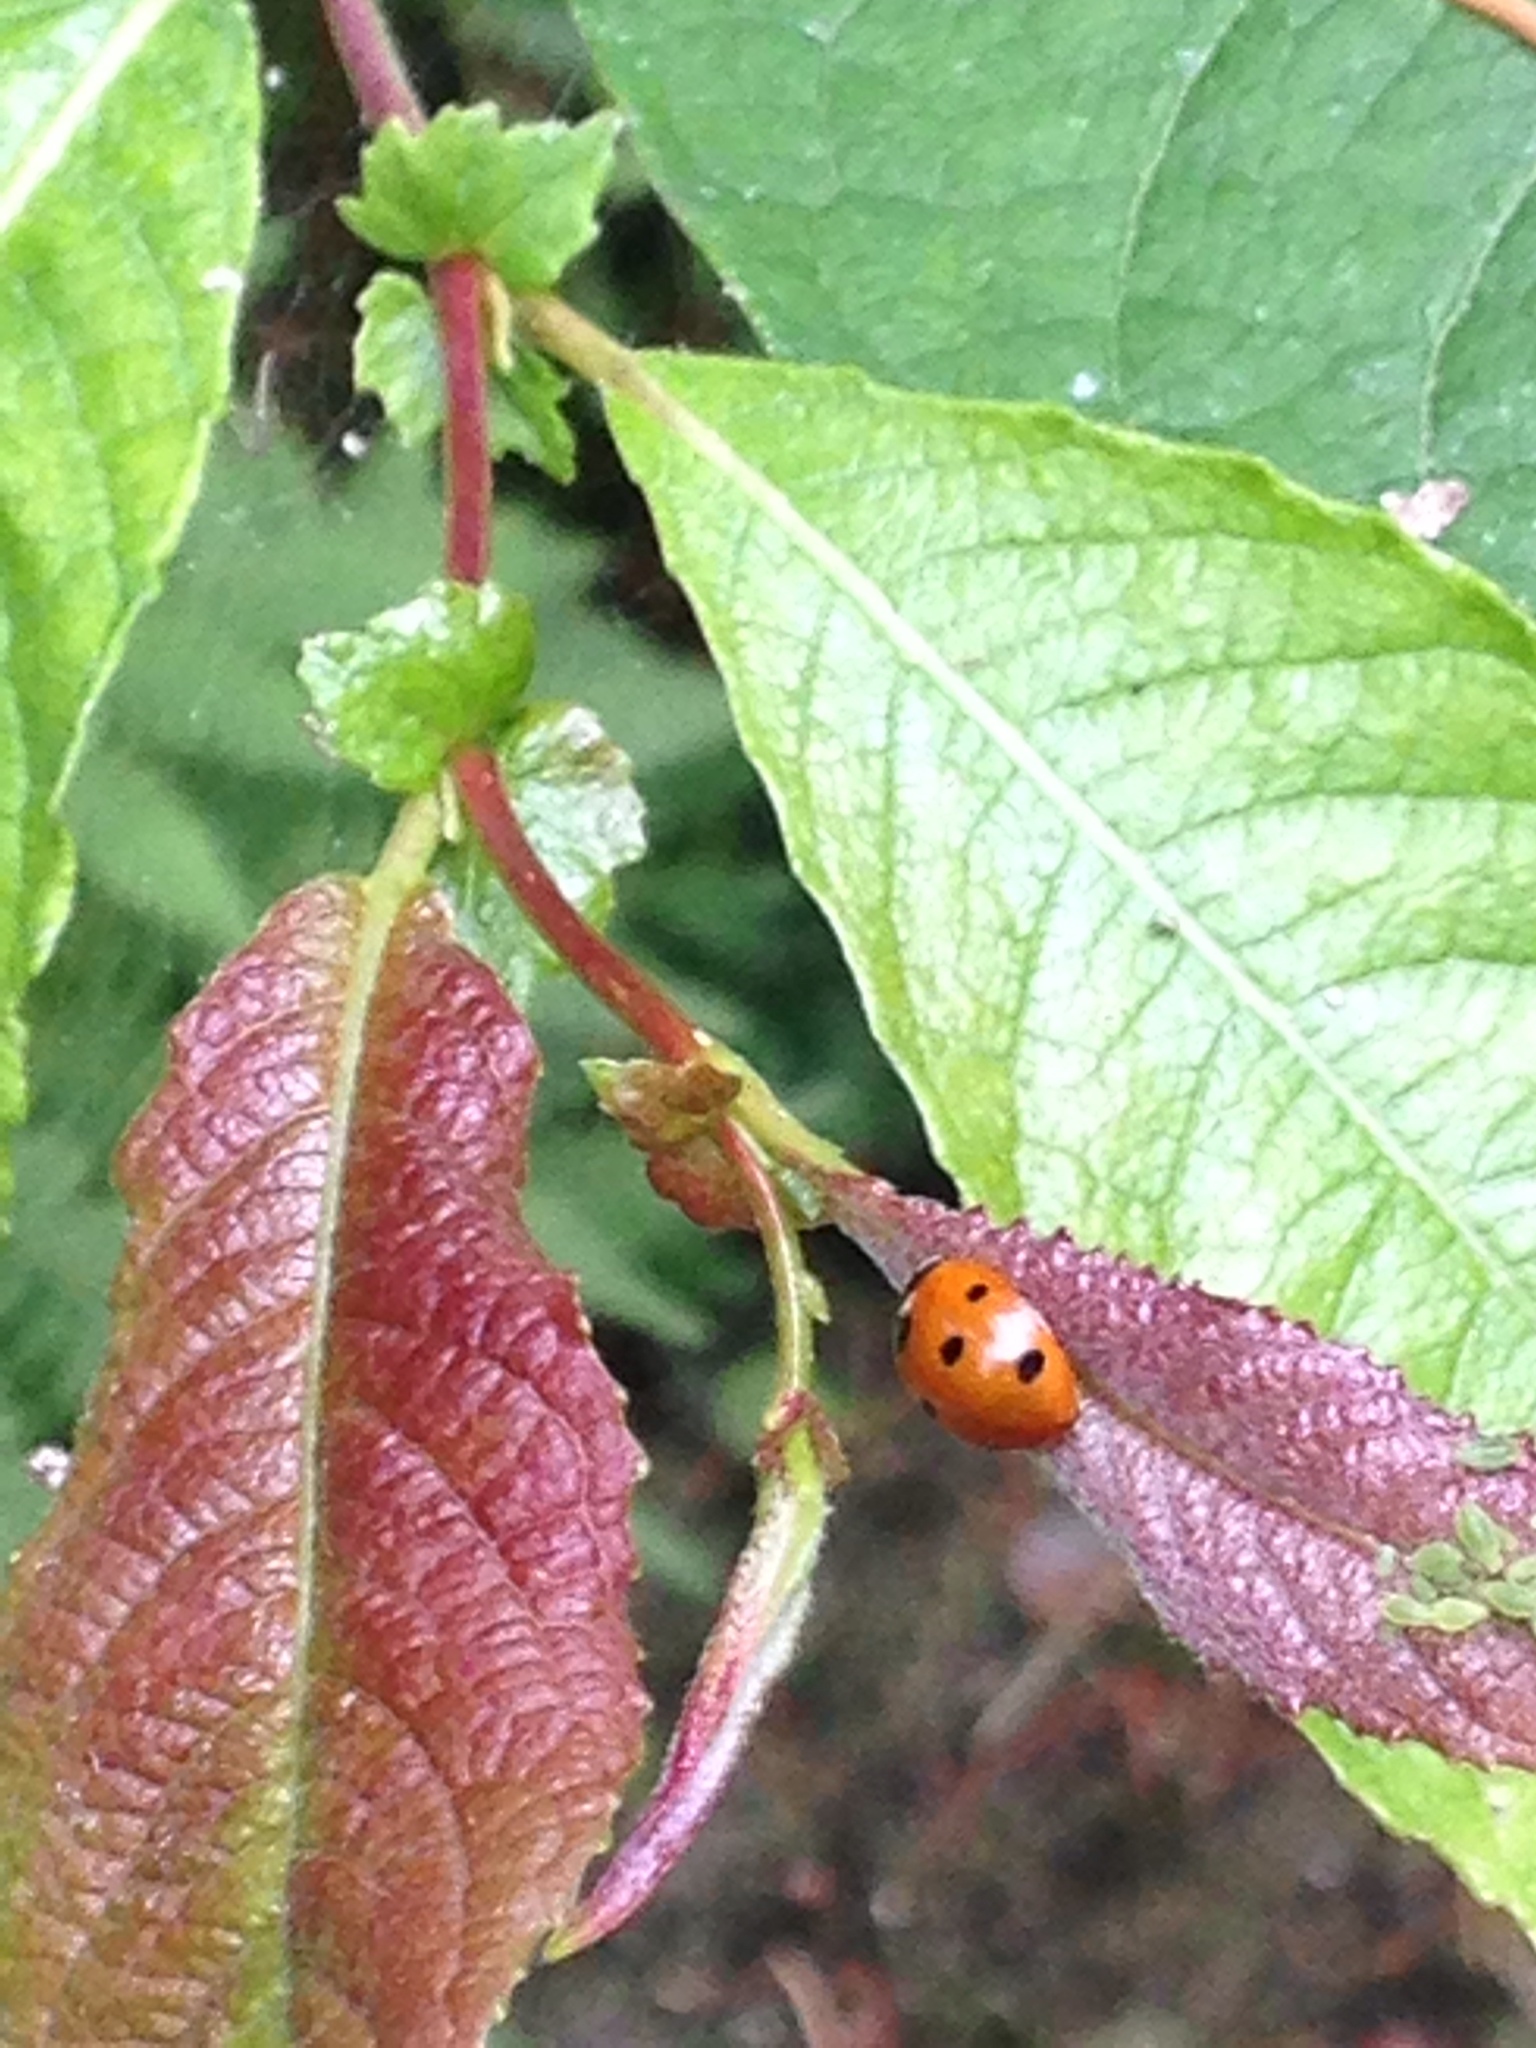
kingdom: Animalia
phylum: Arthropoda
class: Insecta
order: Coleoptera
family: Coccinellidae
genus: Coccinella
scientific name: Coccinella septempunctata
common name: Sevenspotted lady beetle
